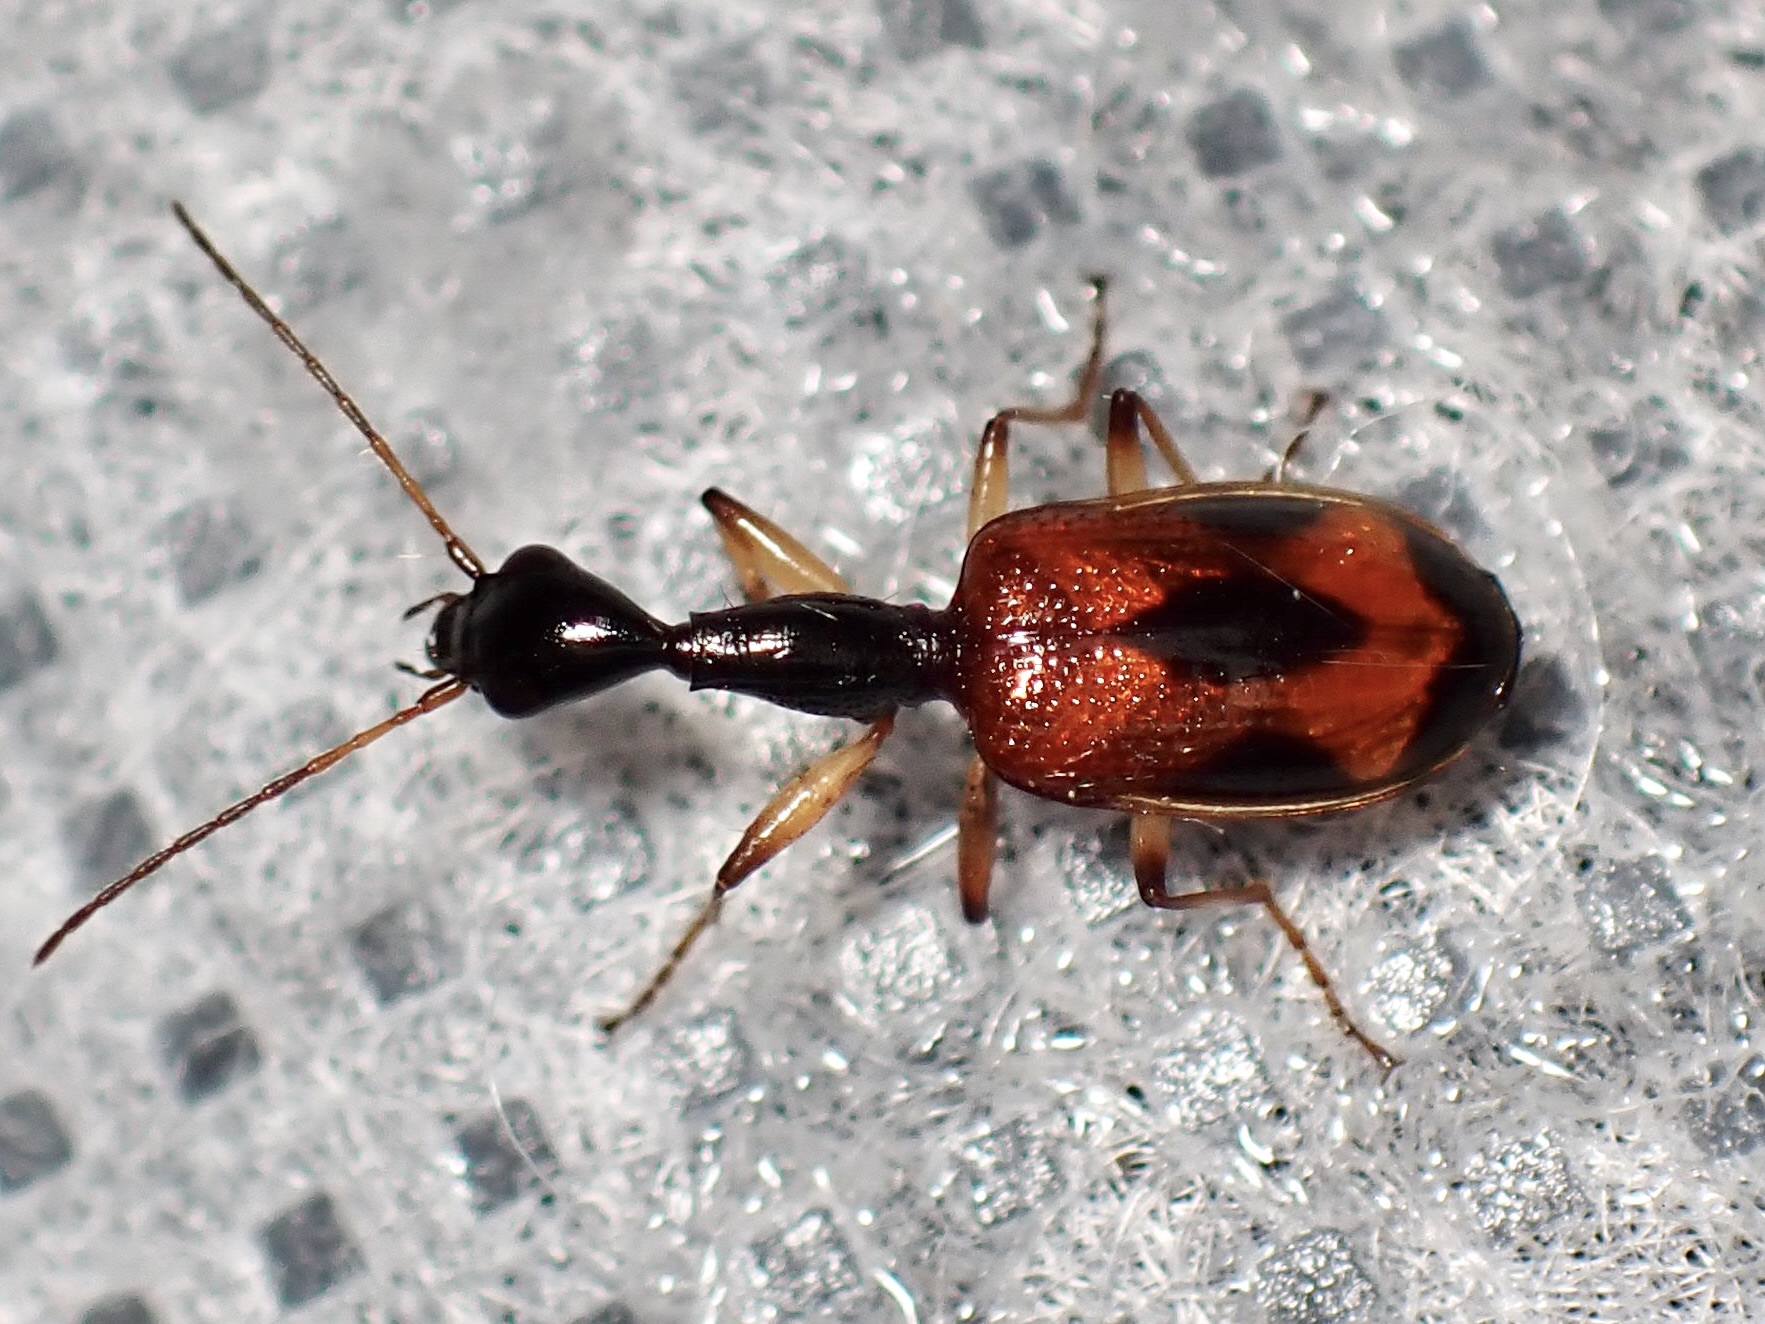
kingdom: Animalia
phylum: Arthropoda
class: Insecta
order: Coleoptera
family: Carabidae
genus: Colliuris
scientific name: Colliuris pensylvanica
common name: Long-necked ground beetle
